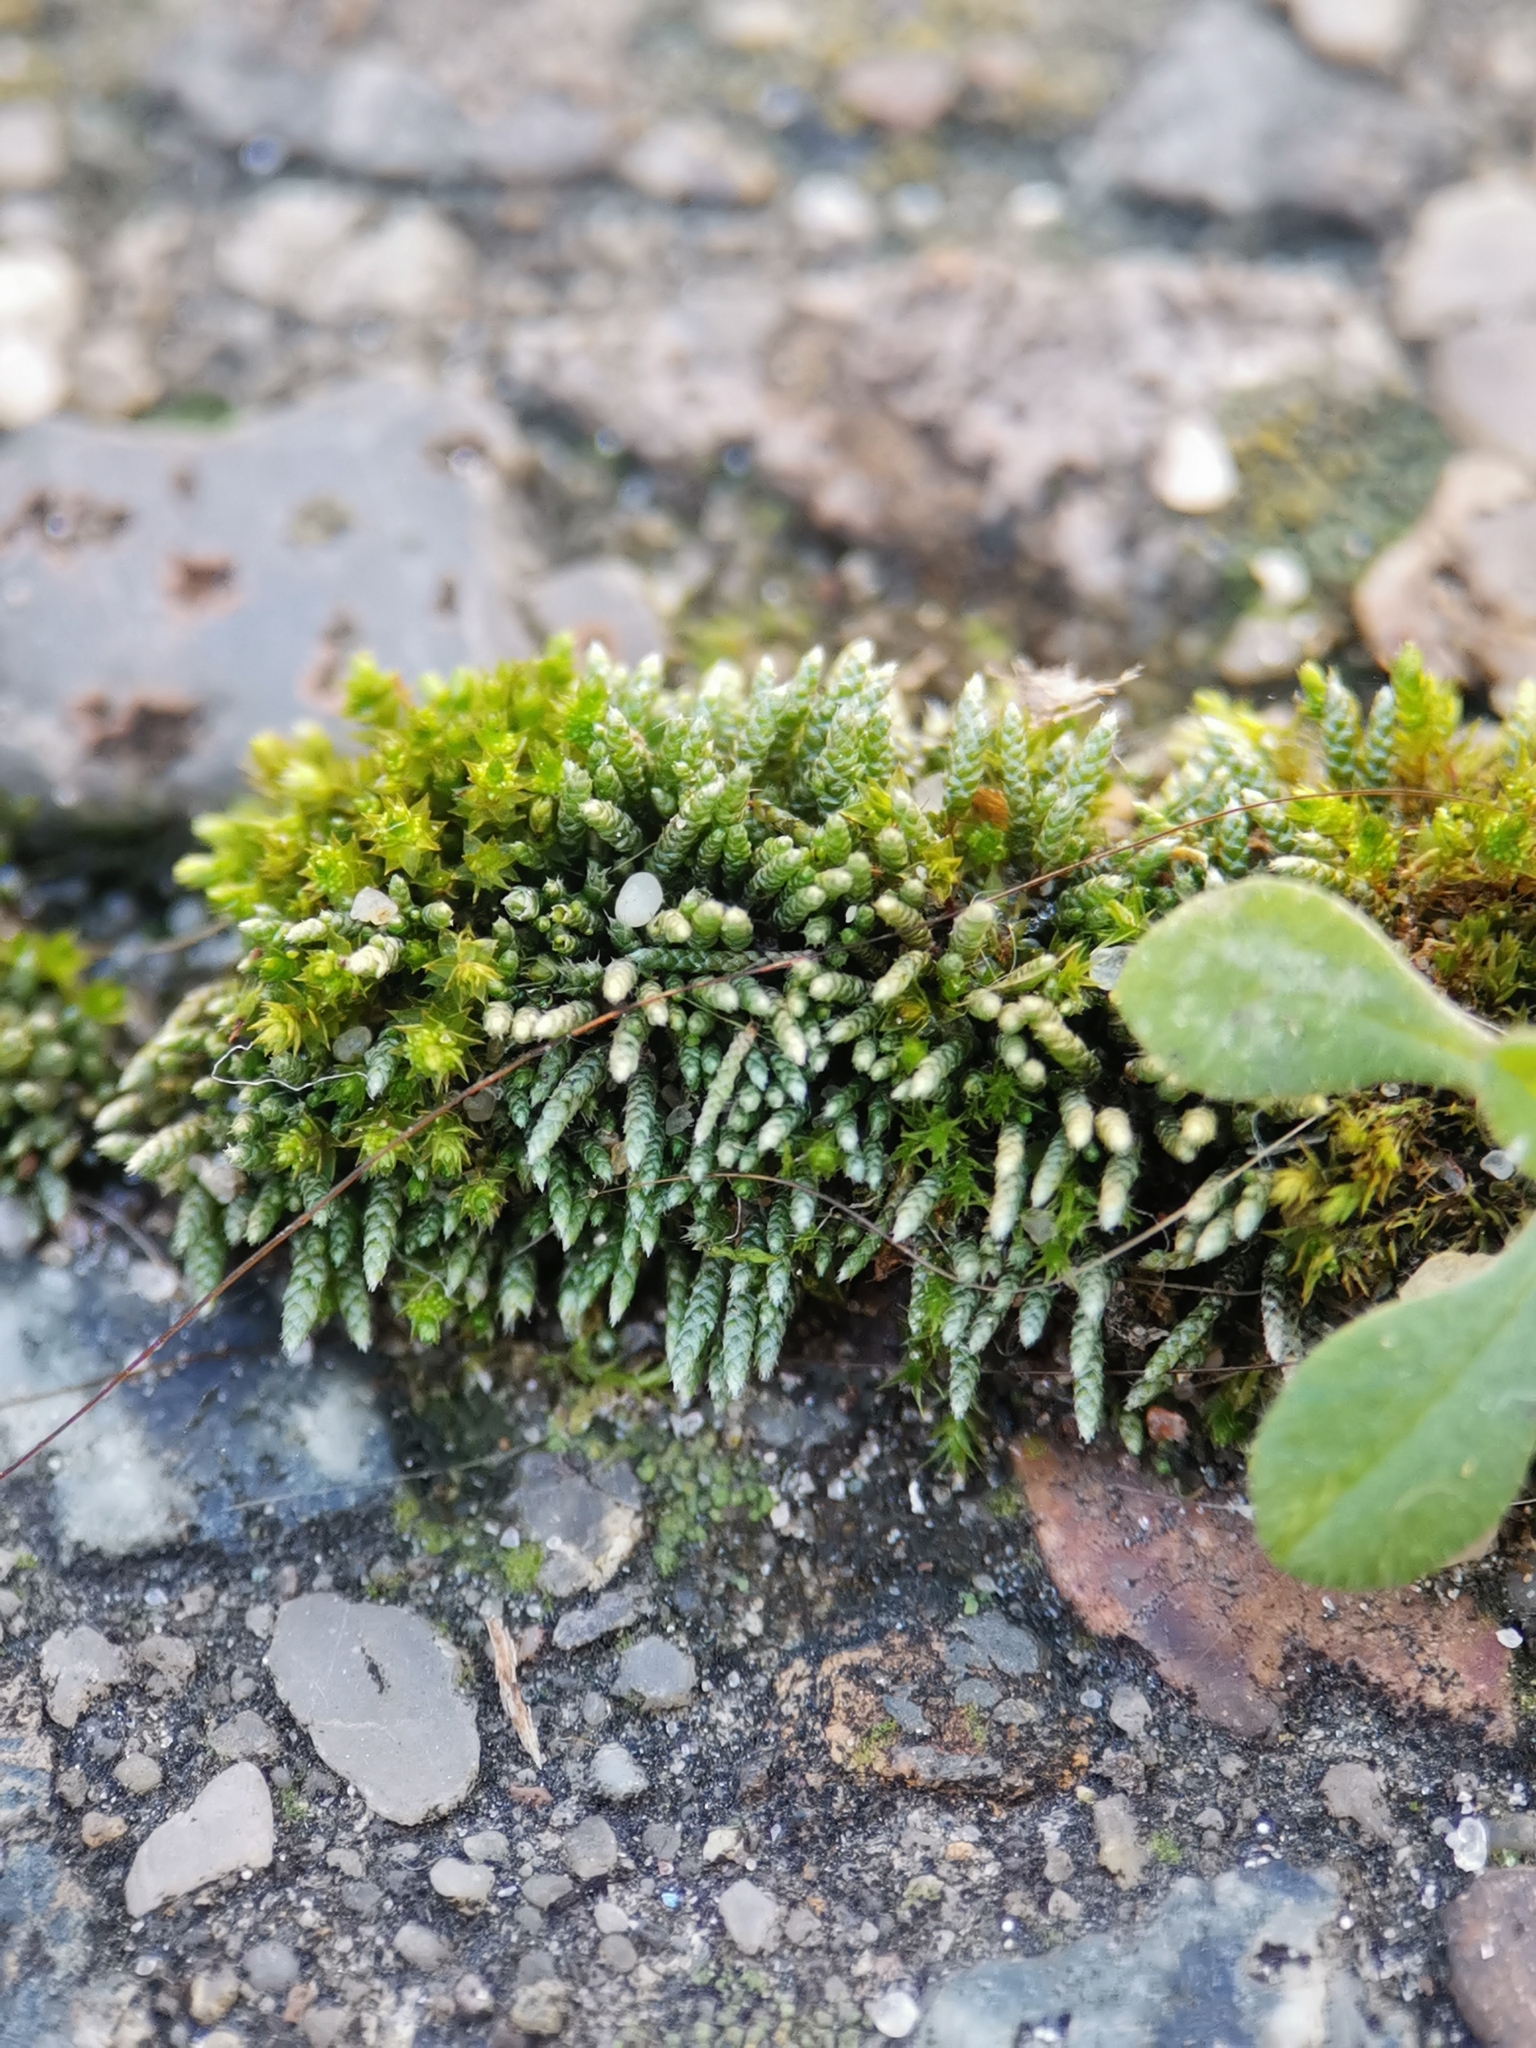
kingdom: Plantae
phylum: Bryophyta
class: Bryopsida
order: Bryales
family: Bryaceae
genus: Bryum
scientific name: Bryum argenteum
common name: Silver-moss
